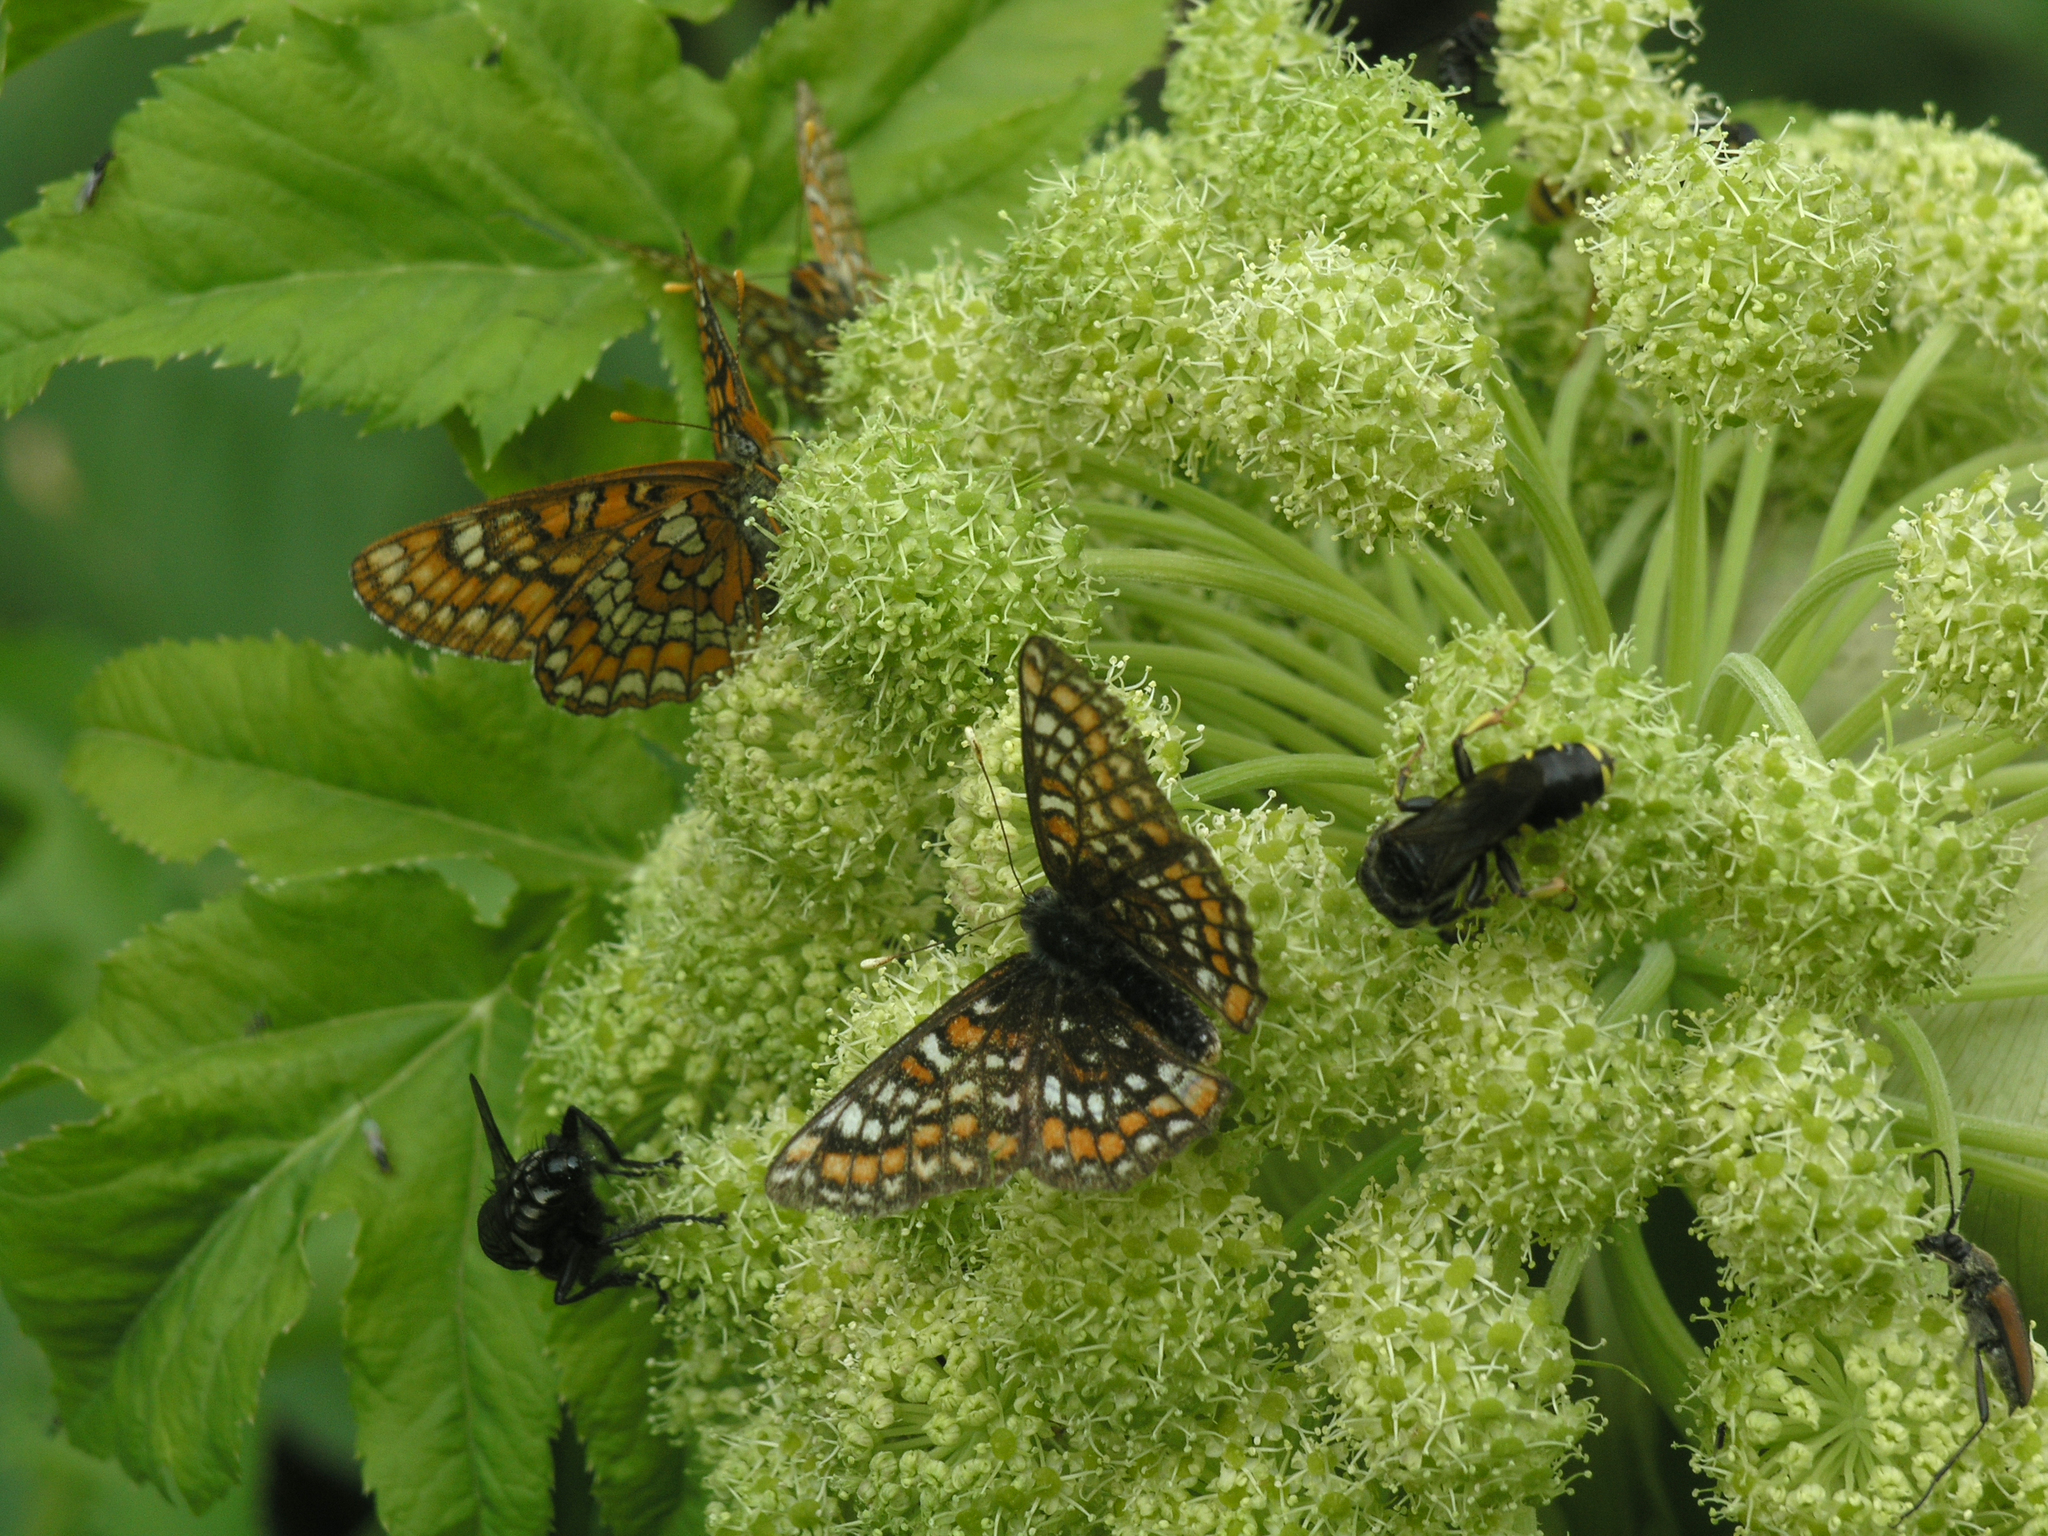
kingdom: Animalia
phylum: Arthropoda
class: Insecta
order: Lepidoptera
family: Nymphalidae
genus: Euphydryas
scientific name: Euphydryas maturna
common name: Scarce fritillary
